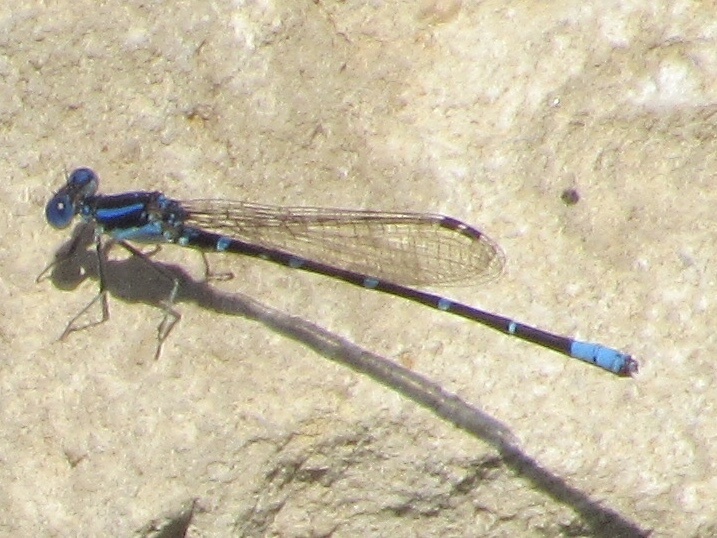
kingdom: Animalia
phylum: Arthropoda
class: Insecta
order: Odonata
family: Coenagrionidae
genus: Argia
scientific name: Argia sedula
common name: Blue-ringed dancer
